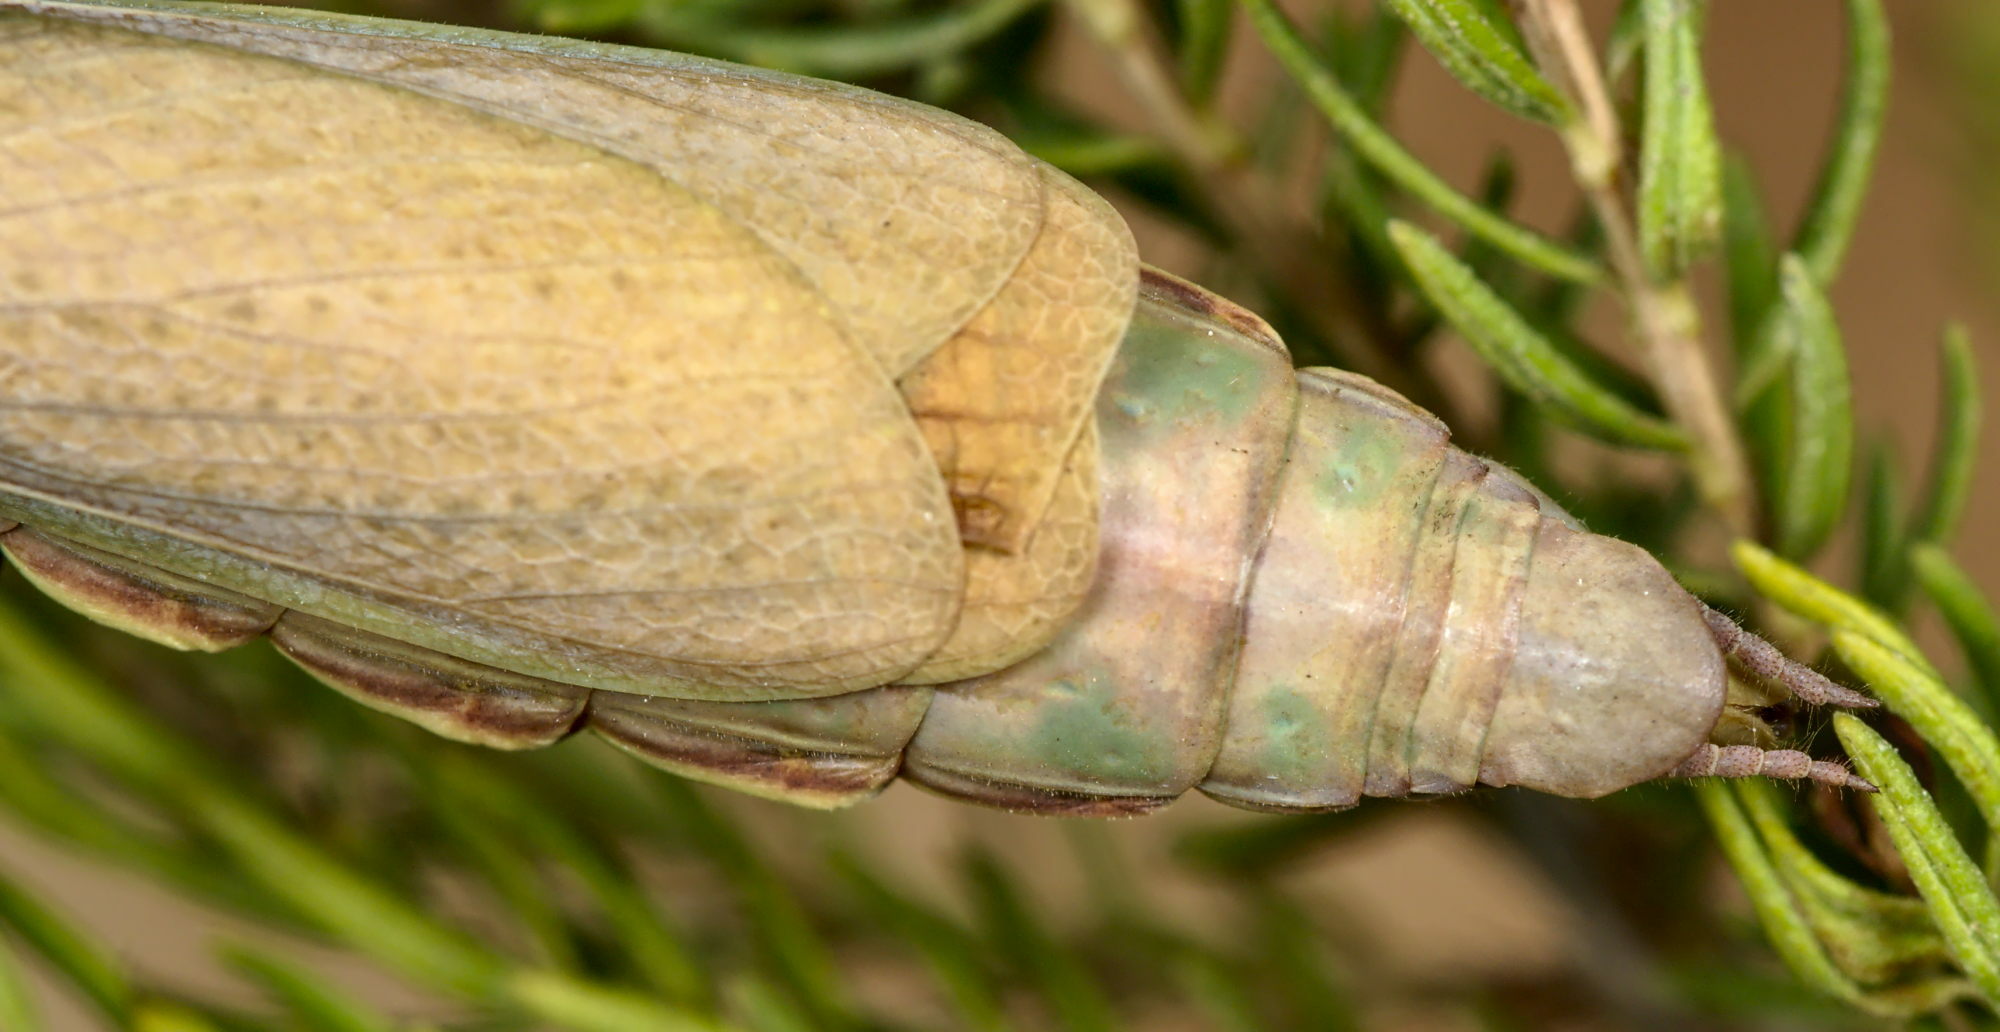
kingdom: Animalia
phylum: Arthropoda
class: Insecta
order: Mantodea
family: Eremiaphilidae
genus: Iris
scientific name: Iris oratoria
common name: Mediterranean mantis
